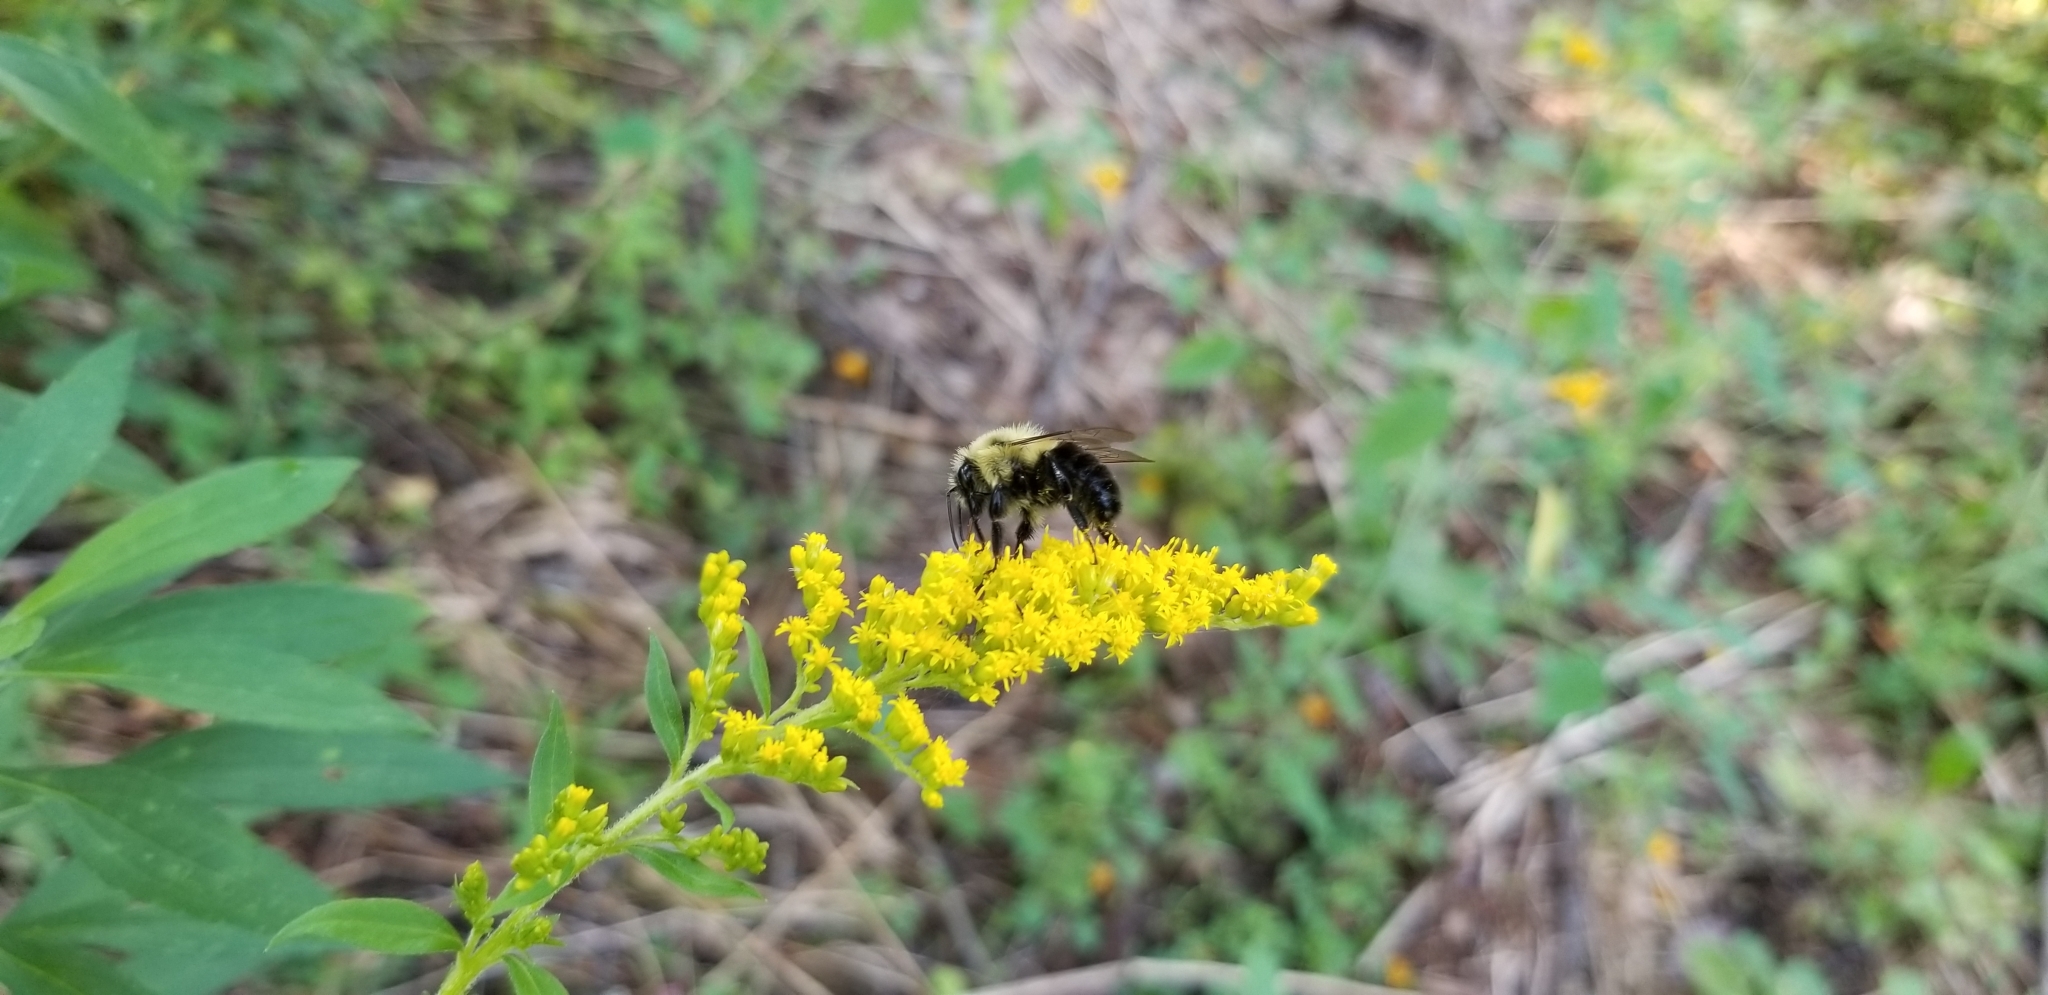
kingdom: Animalia
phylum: Arthropoda
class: Insecta
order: Hymenoptera
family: Apidae
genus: Bombus
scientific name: Bombus impatiens
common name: Common eastern bumble bee
